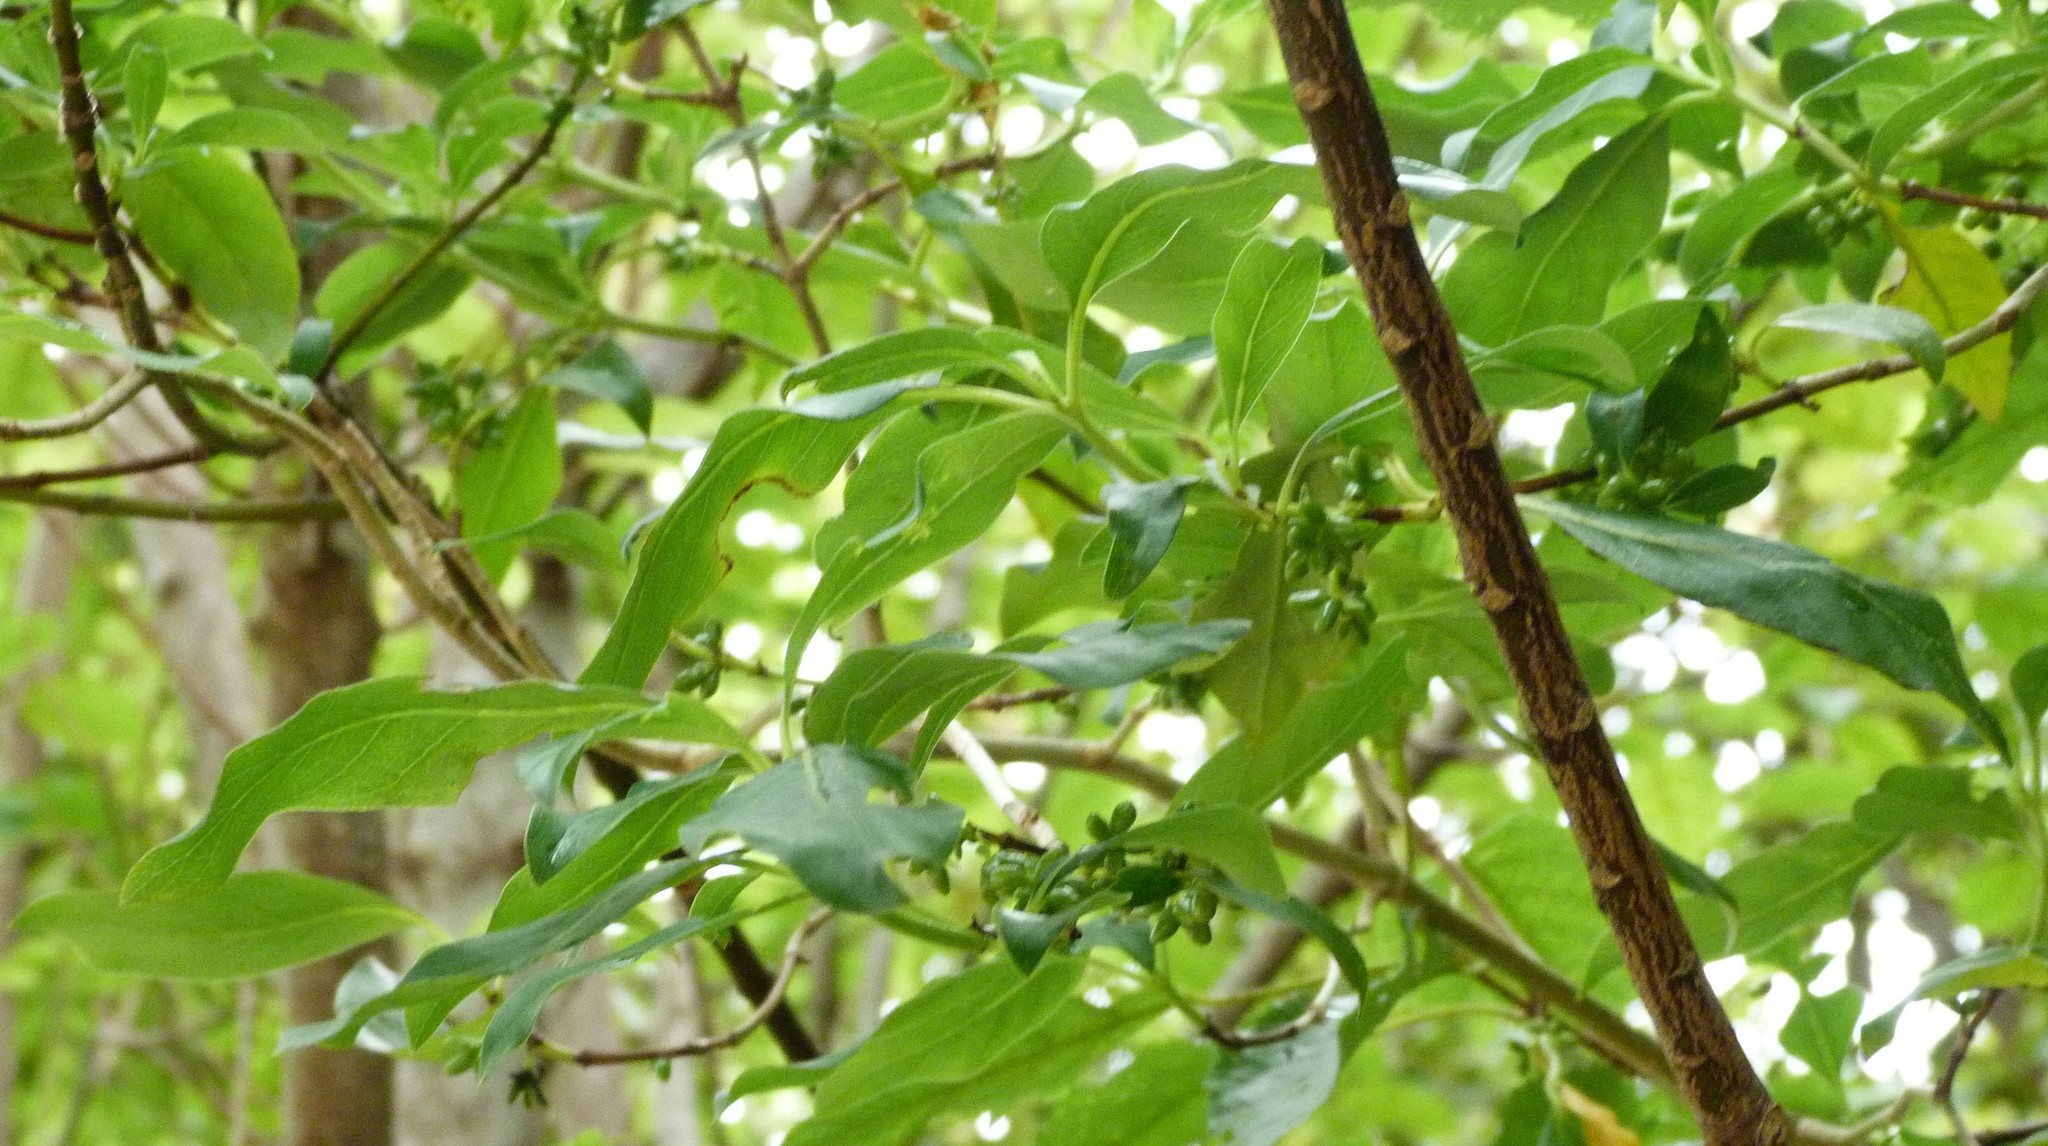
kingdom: Plantae
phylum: Tracheophyta
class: Magnoliopsida
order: Gentianales
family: Rubiaceae
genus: Coprosma
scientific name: Coprosma robusta
